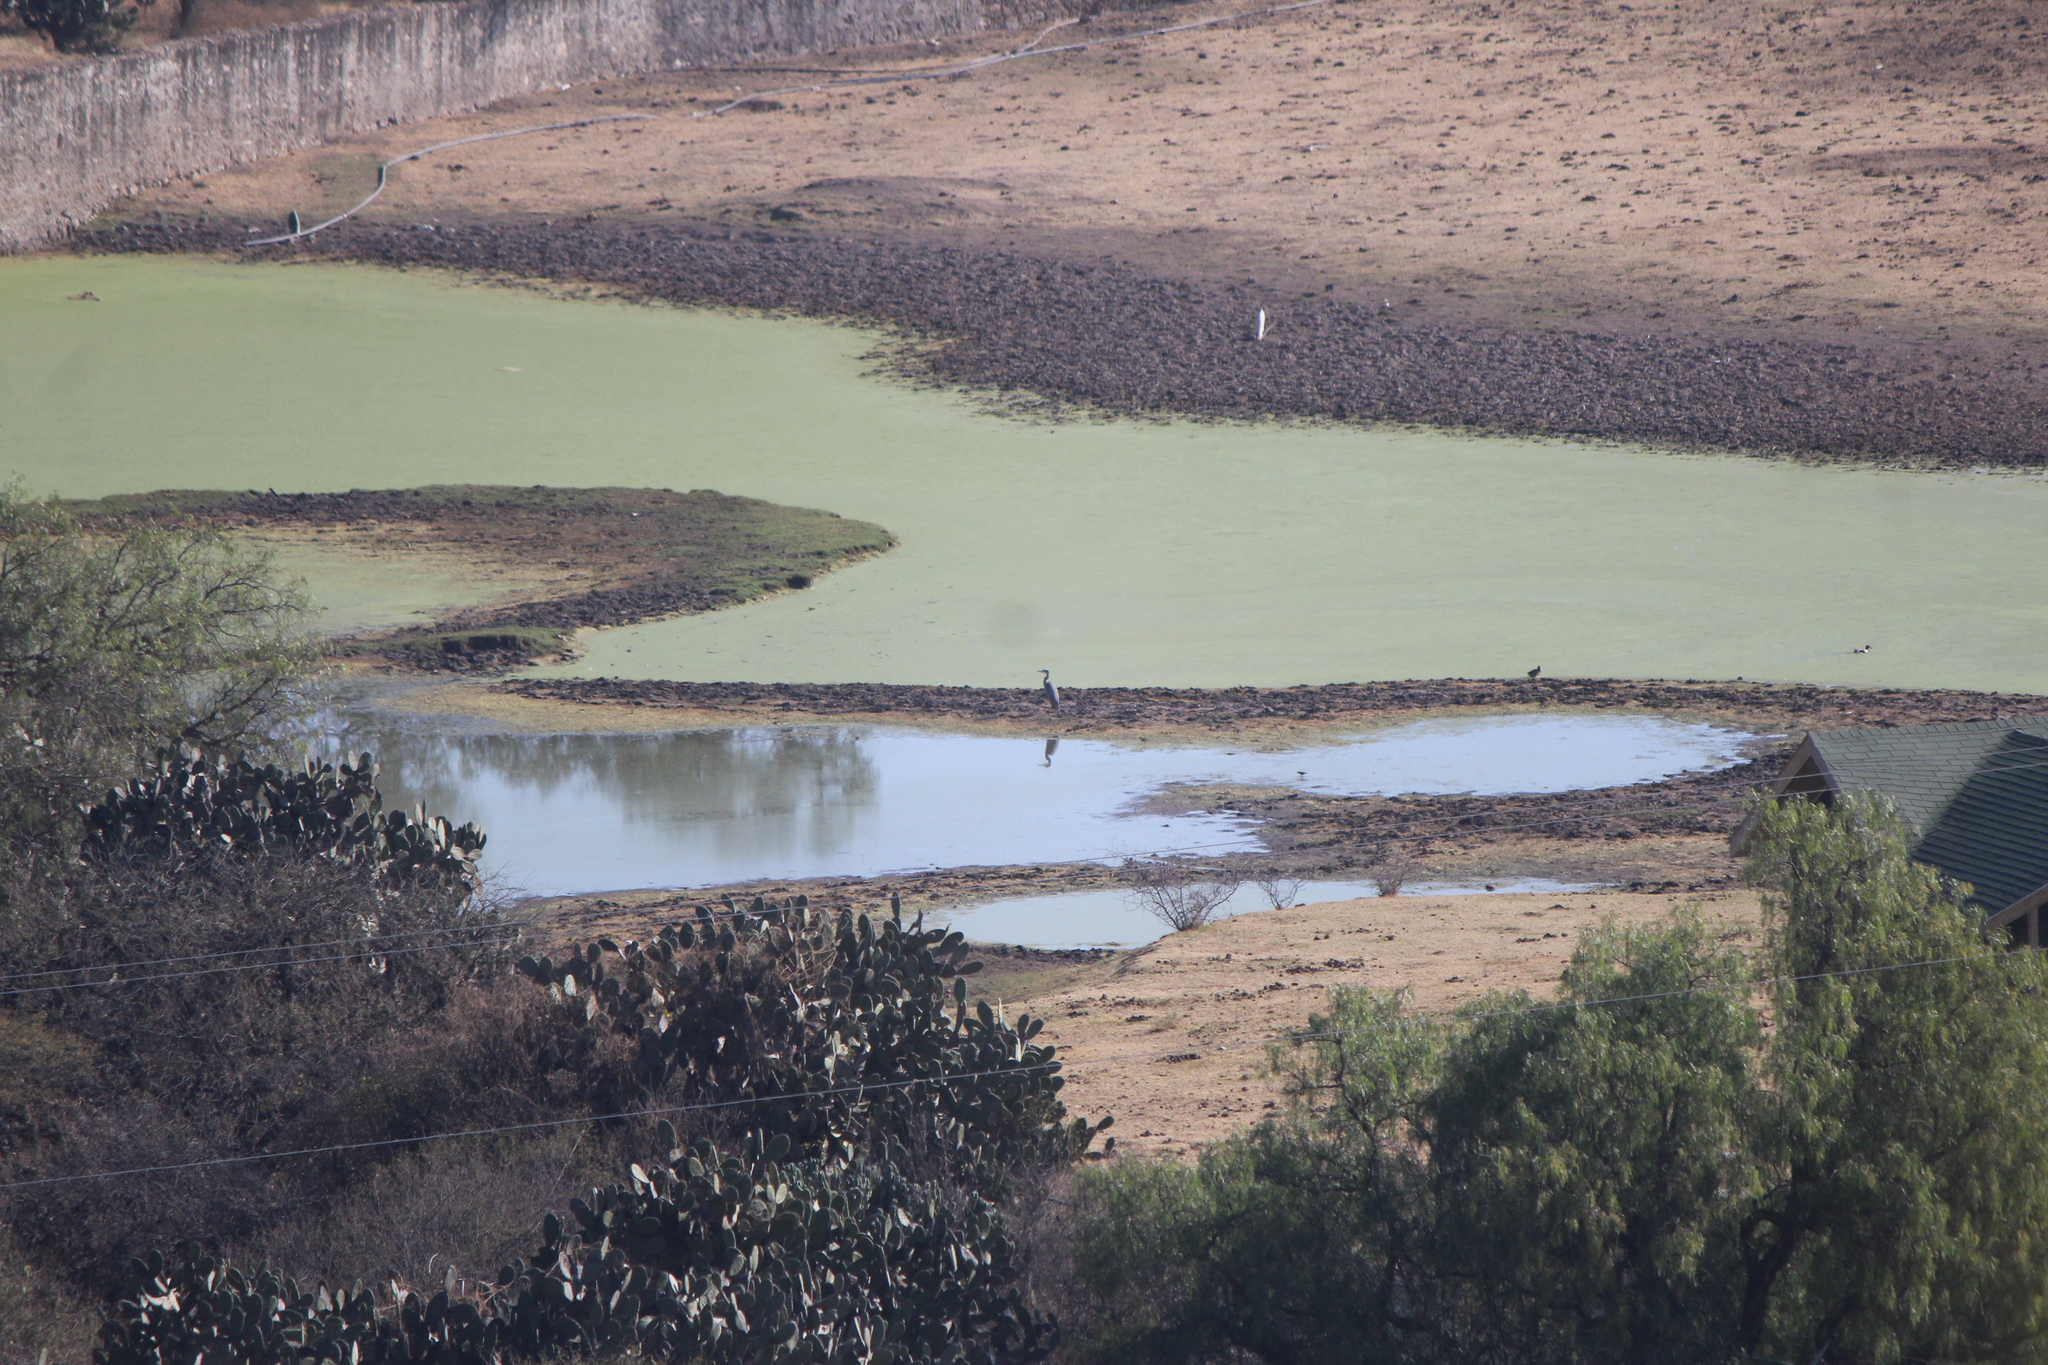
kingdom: Animalia
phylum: Chordata
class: Aves
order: Pelecaniformes
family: Ardeidae
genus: Ardea
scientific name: Ardea herodias
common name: Great blue heron
